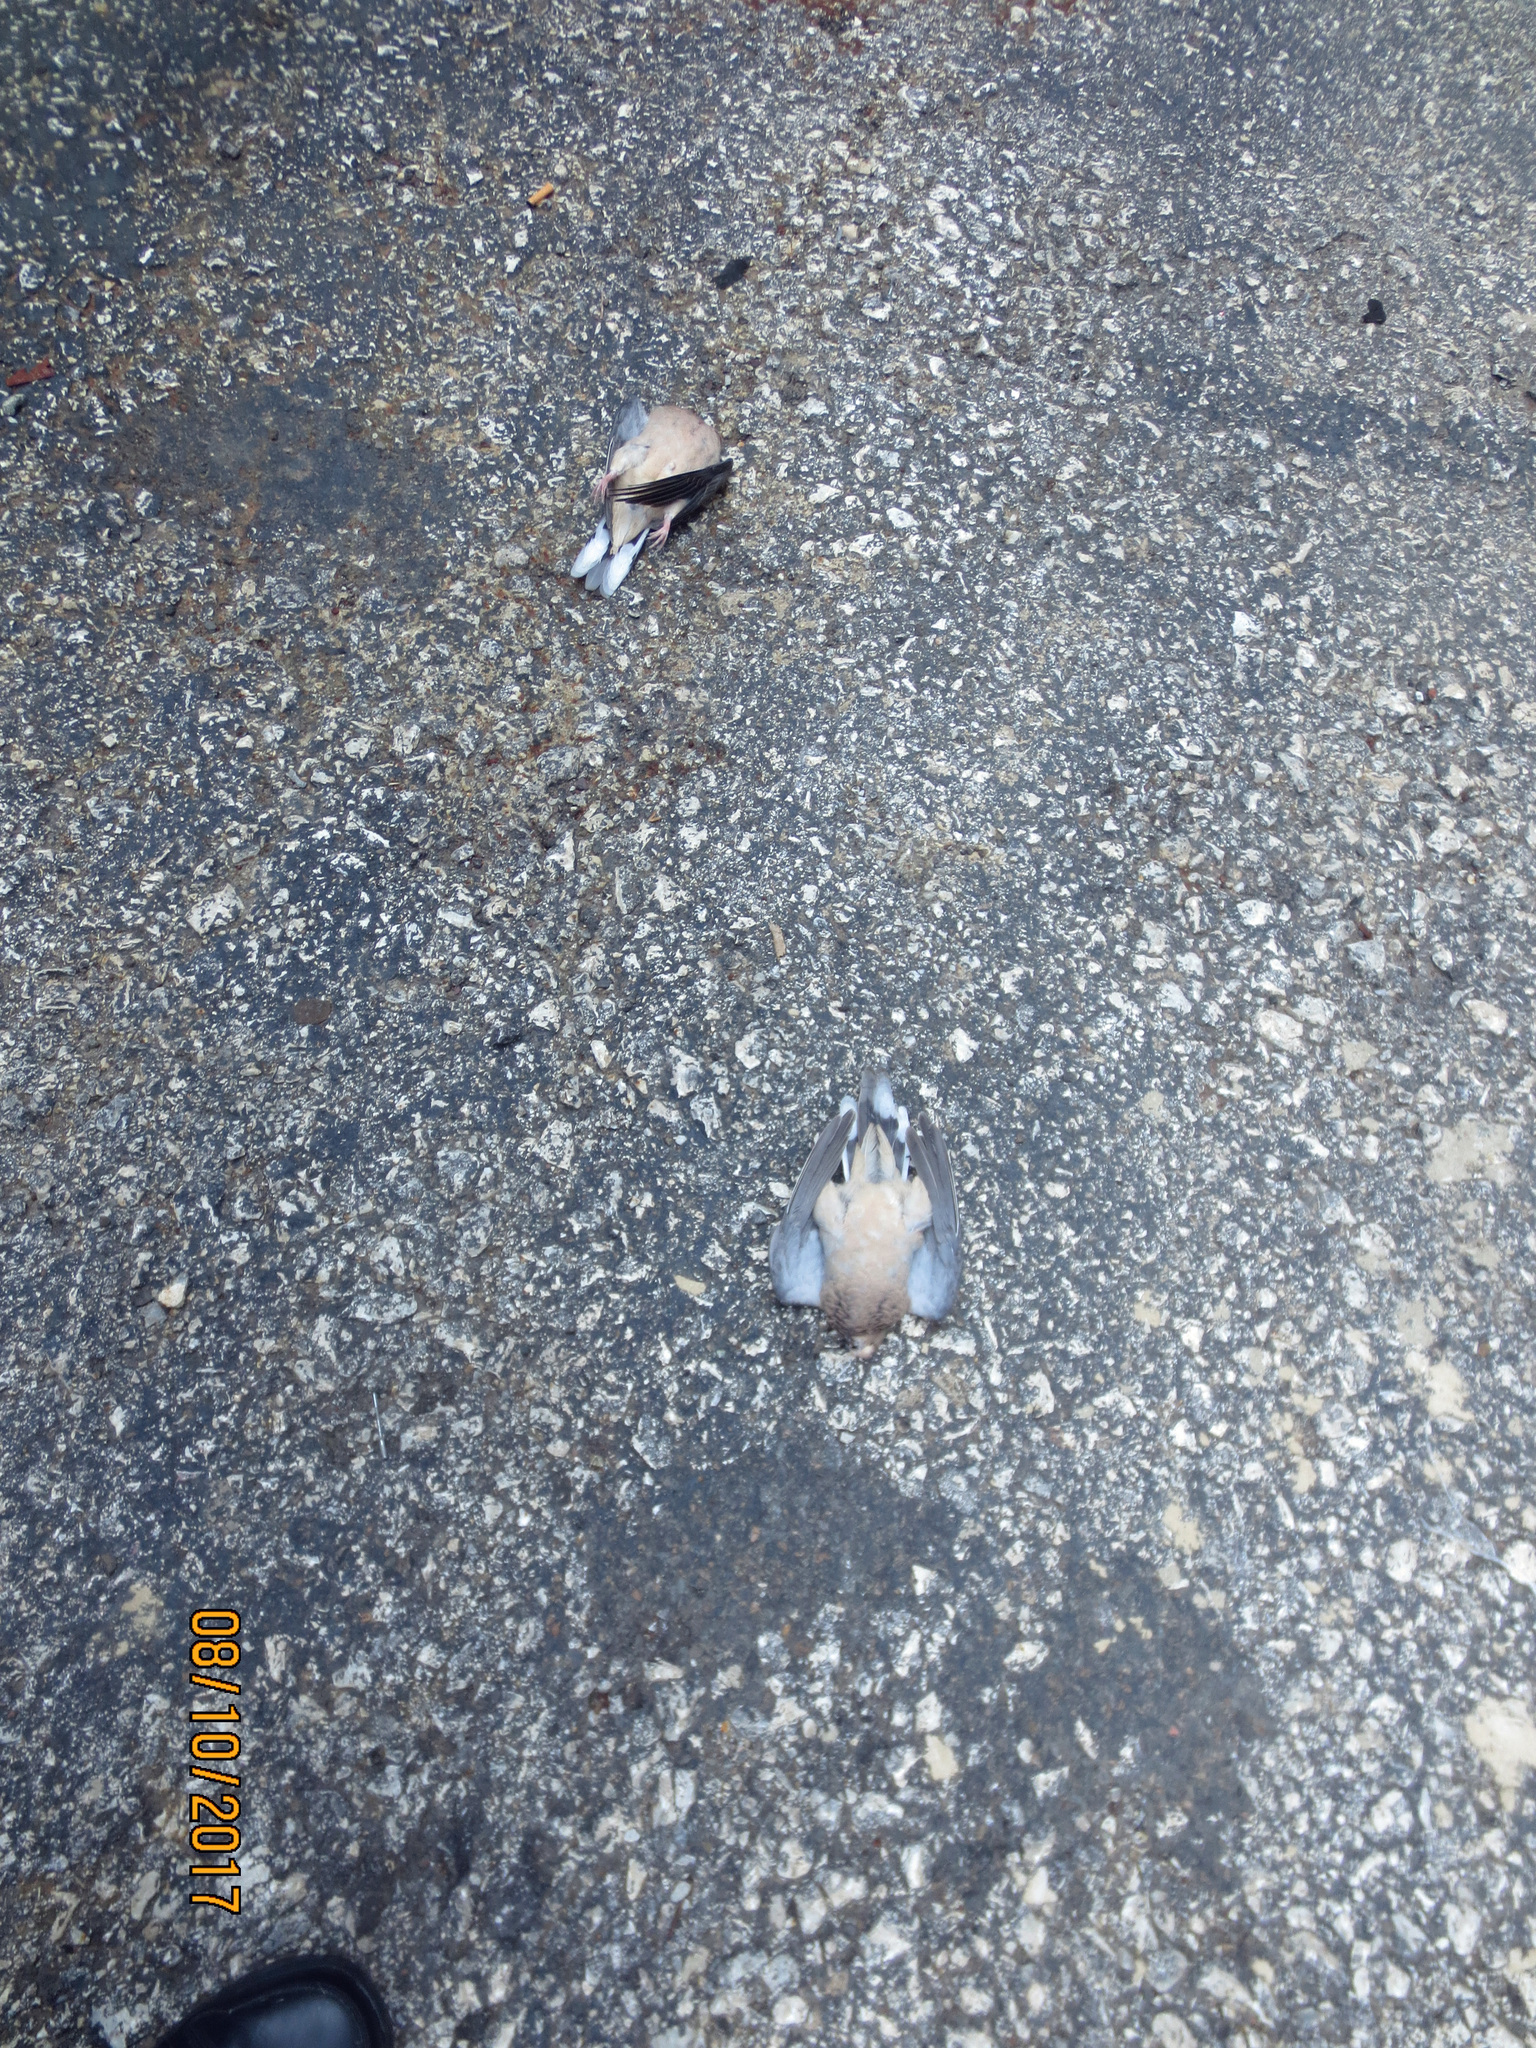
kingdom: Animalia
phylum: Chordata
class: Aves
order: Columbiformes
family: Columbidae
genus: Zenaida
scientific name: Zenaida macroura
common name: Mourning dove
